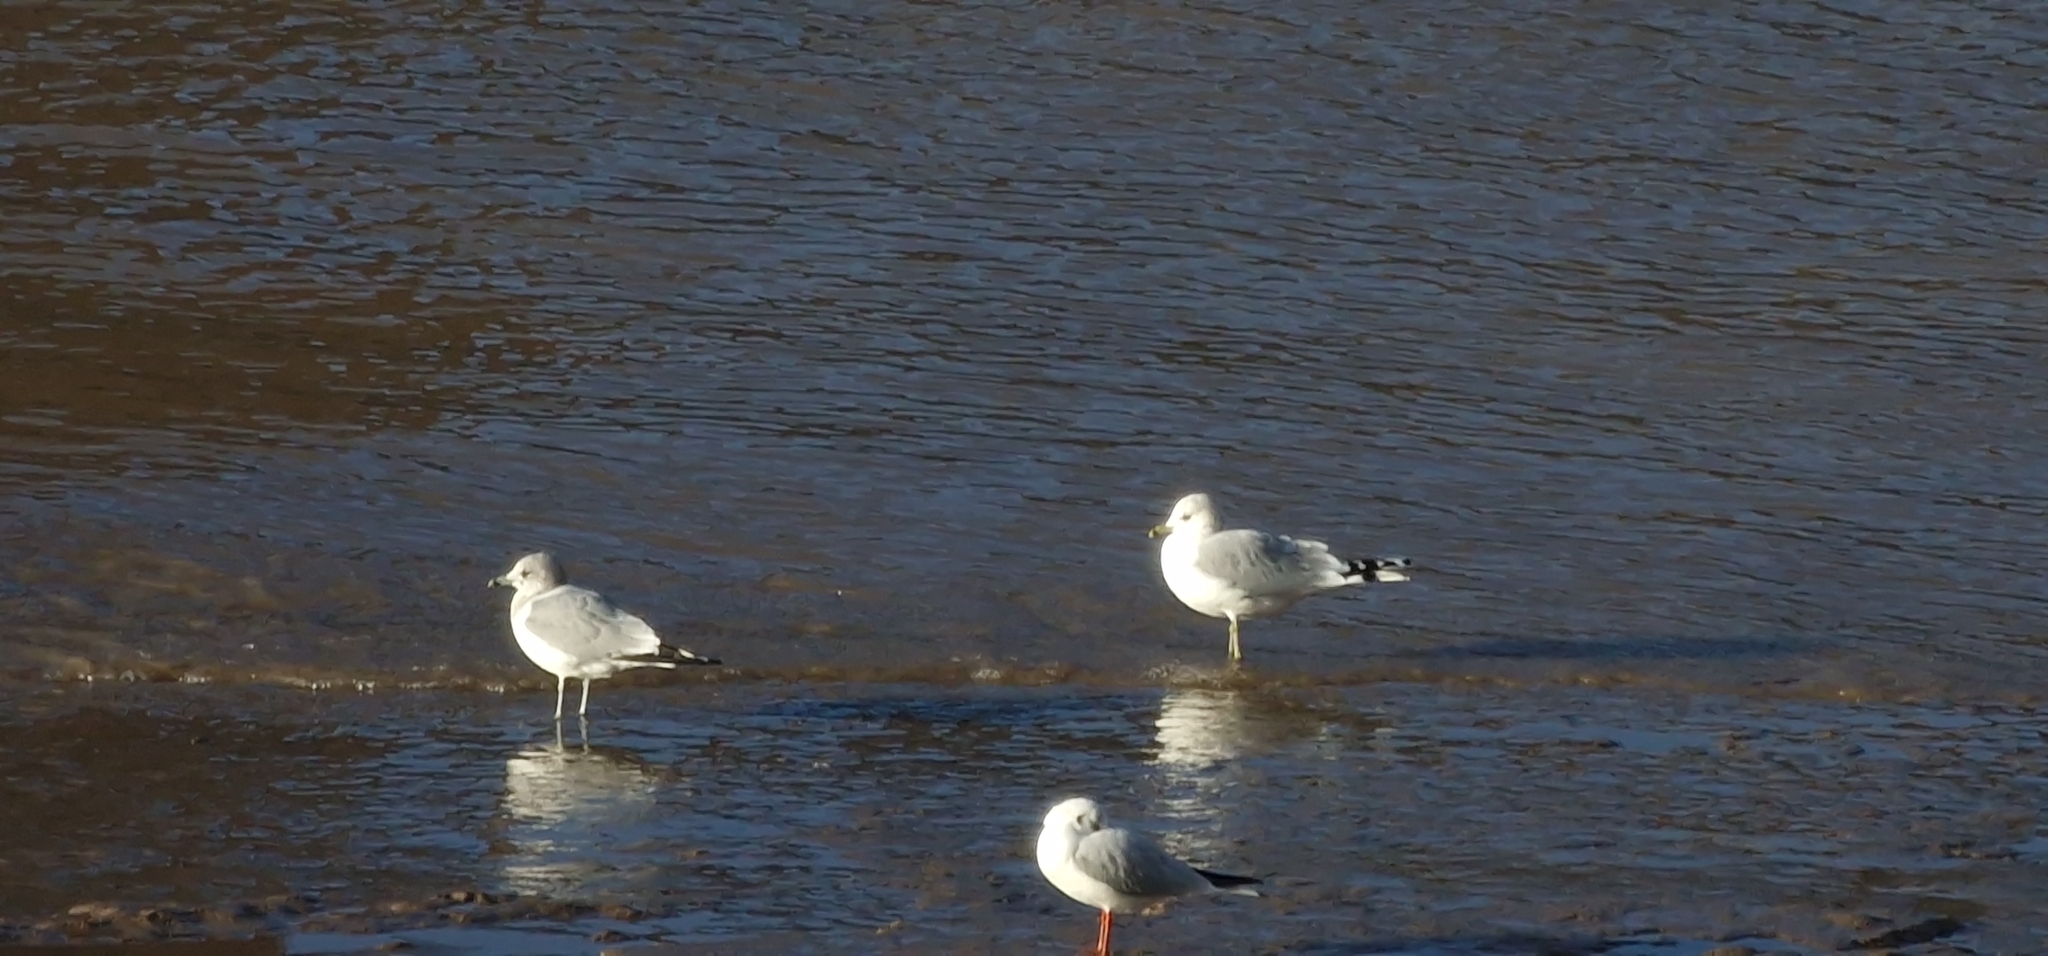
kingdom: Animalia
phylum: Chordata
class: Aves
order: Charadriiformes
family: Laridae
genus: Larus
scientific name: Larus canus
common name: Mew gull
